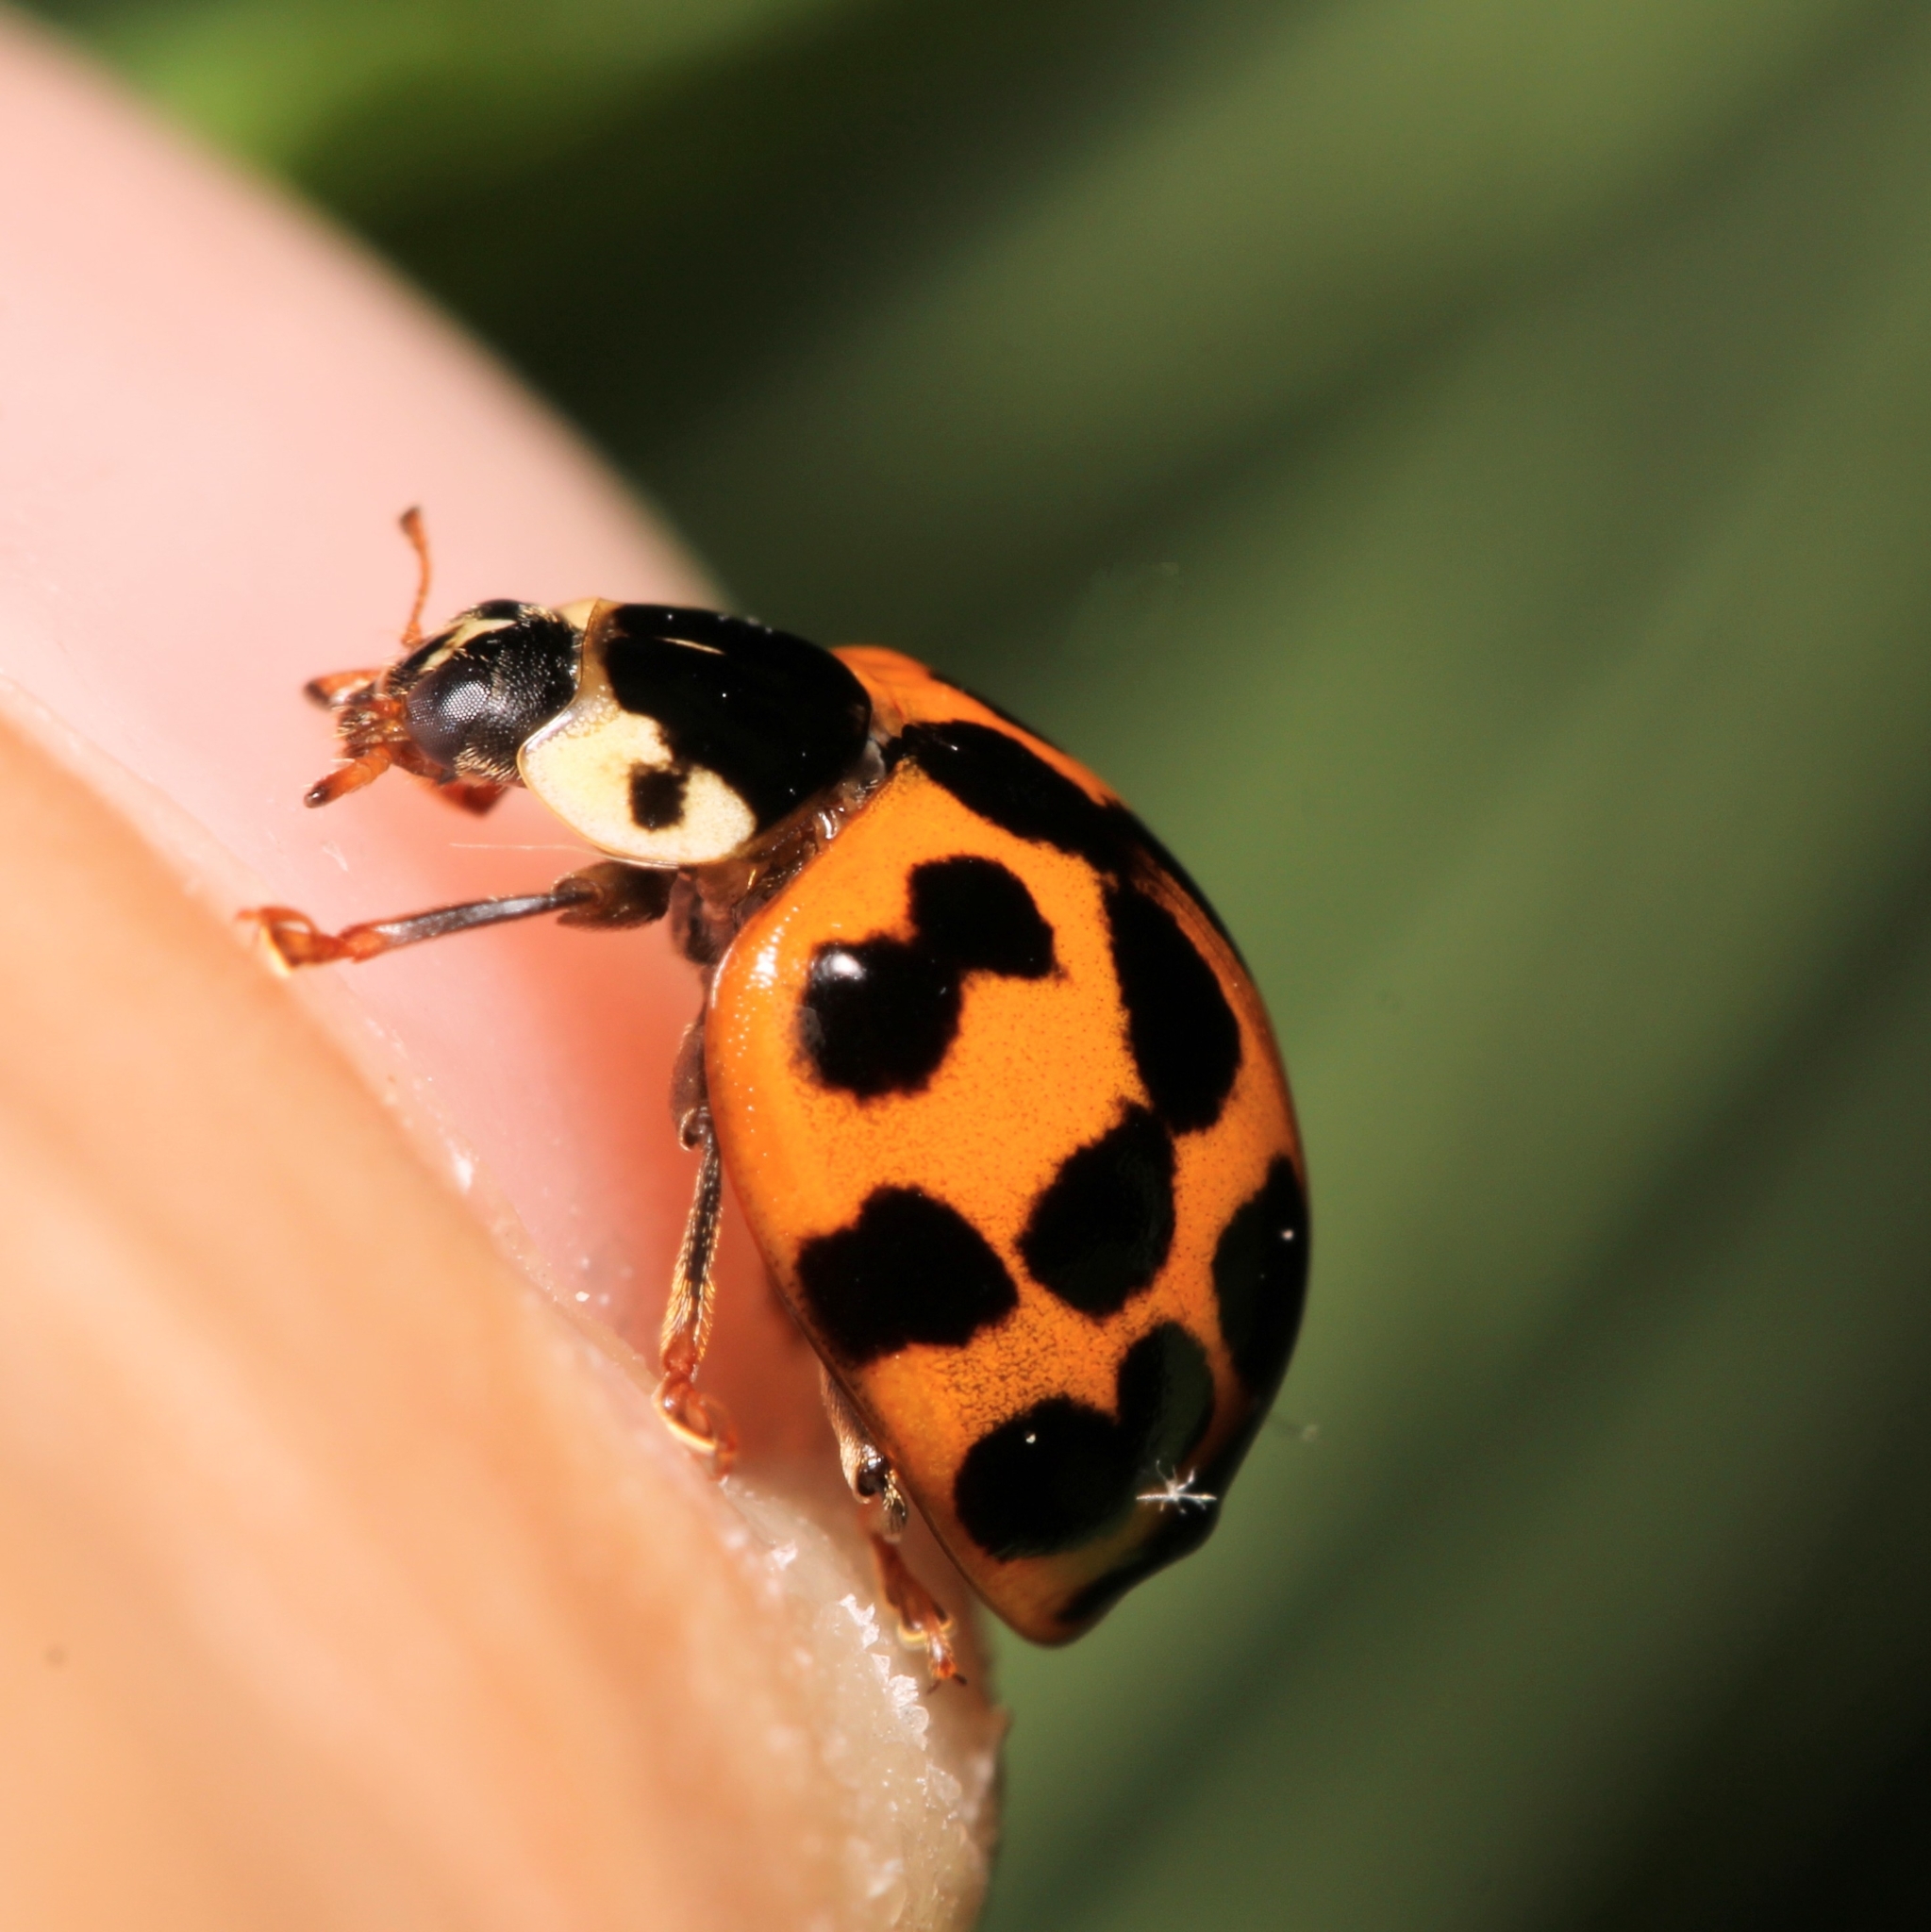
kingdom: Animalia
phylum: Arthropoda
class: Insecta
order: Coleoptera
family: Coccinellidae
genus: Harmonia
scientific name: Harmonia axyridis
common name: Harlequin ladybird
